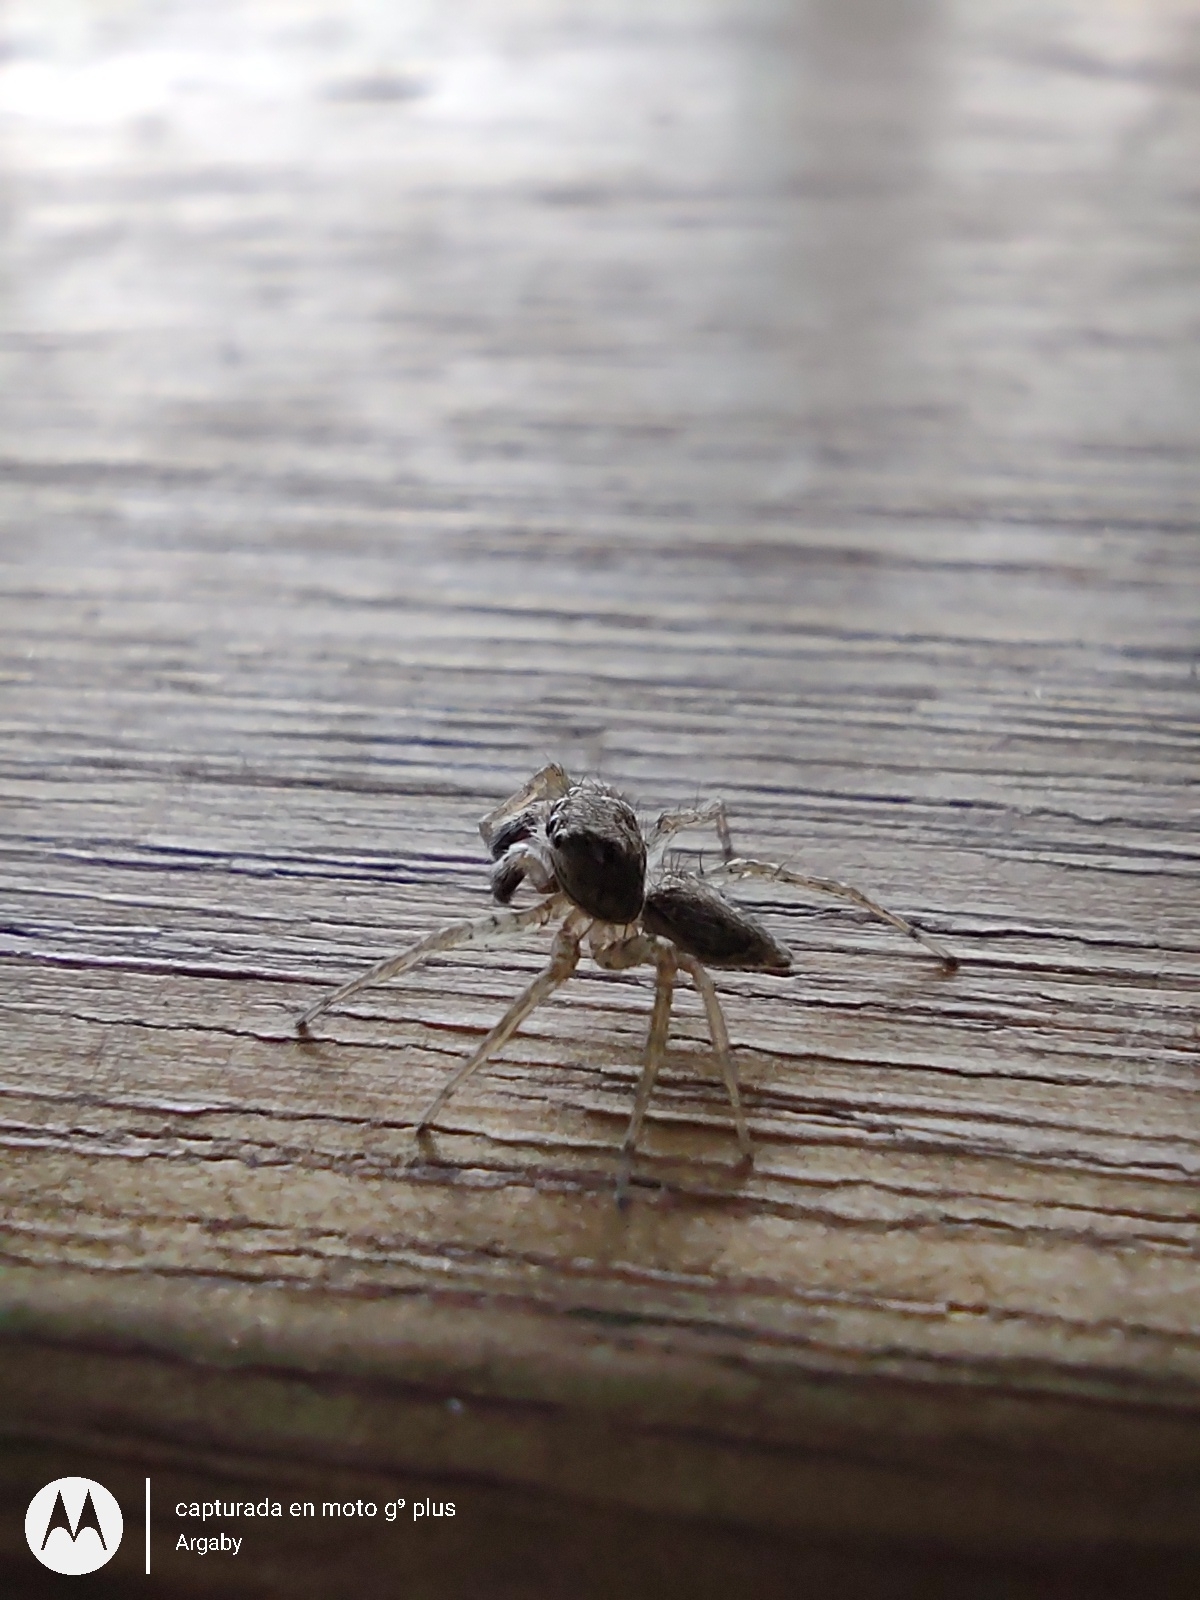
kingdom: Animalia
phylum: Arthropoda
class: Arachnida
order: Araneae
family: Salticidae
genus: Saitis
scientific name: Saitis variegatus
